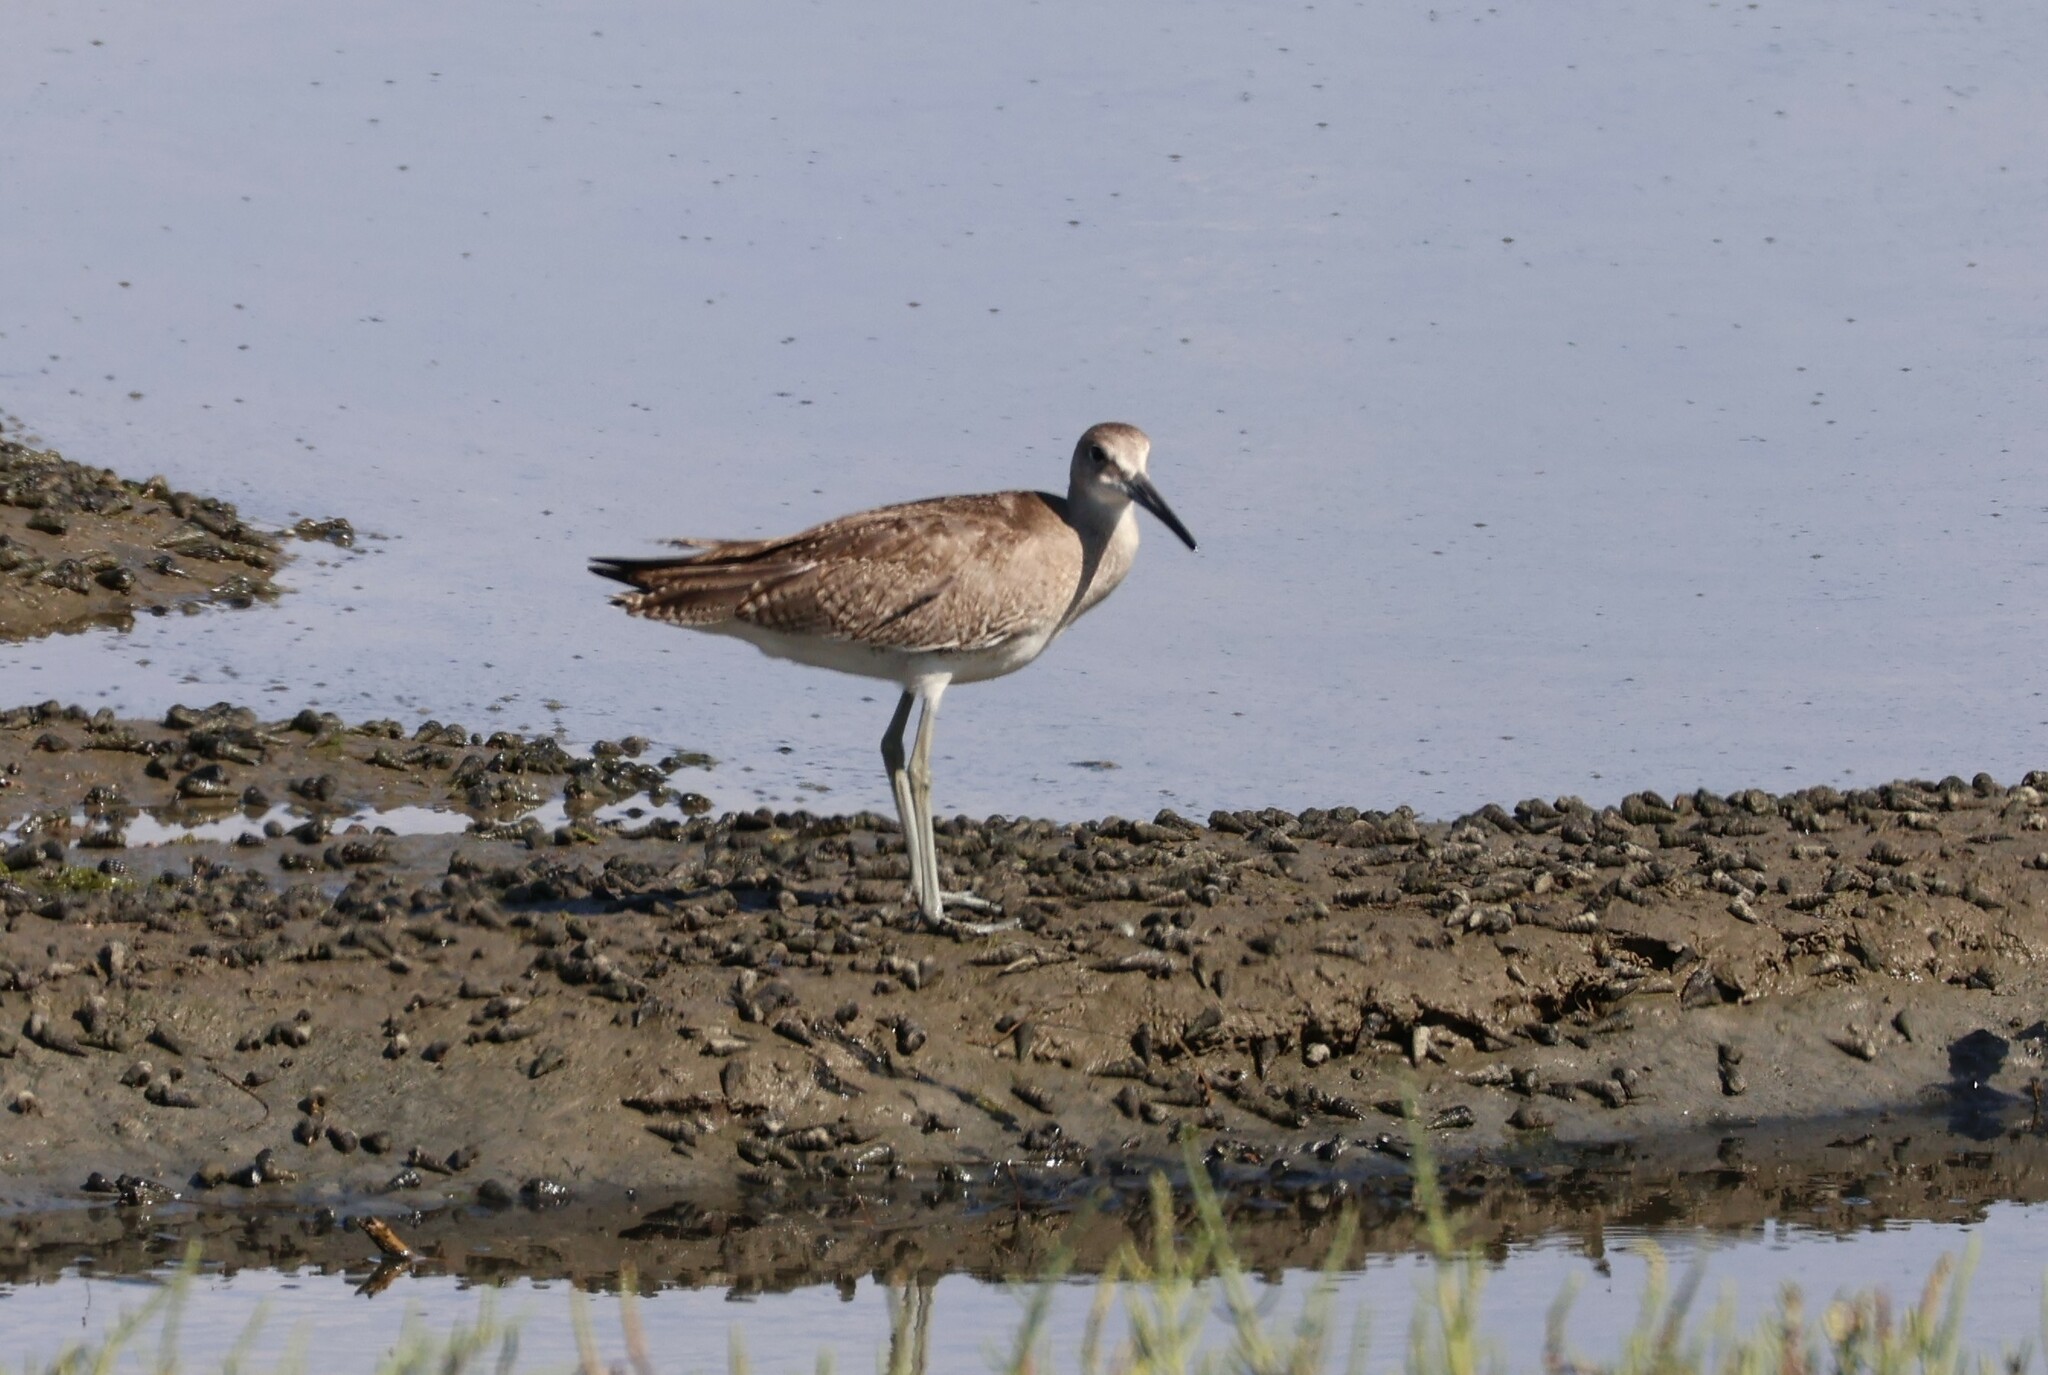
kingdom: Animalia
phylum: Chordata
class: Aves
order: Charadriiformes
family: Scolopacidae
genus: Tringa
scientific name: Tringa semipalmata
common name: Willet
